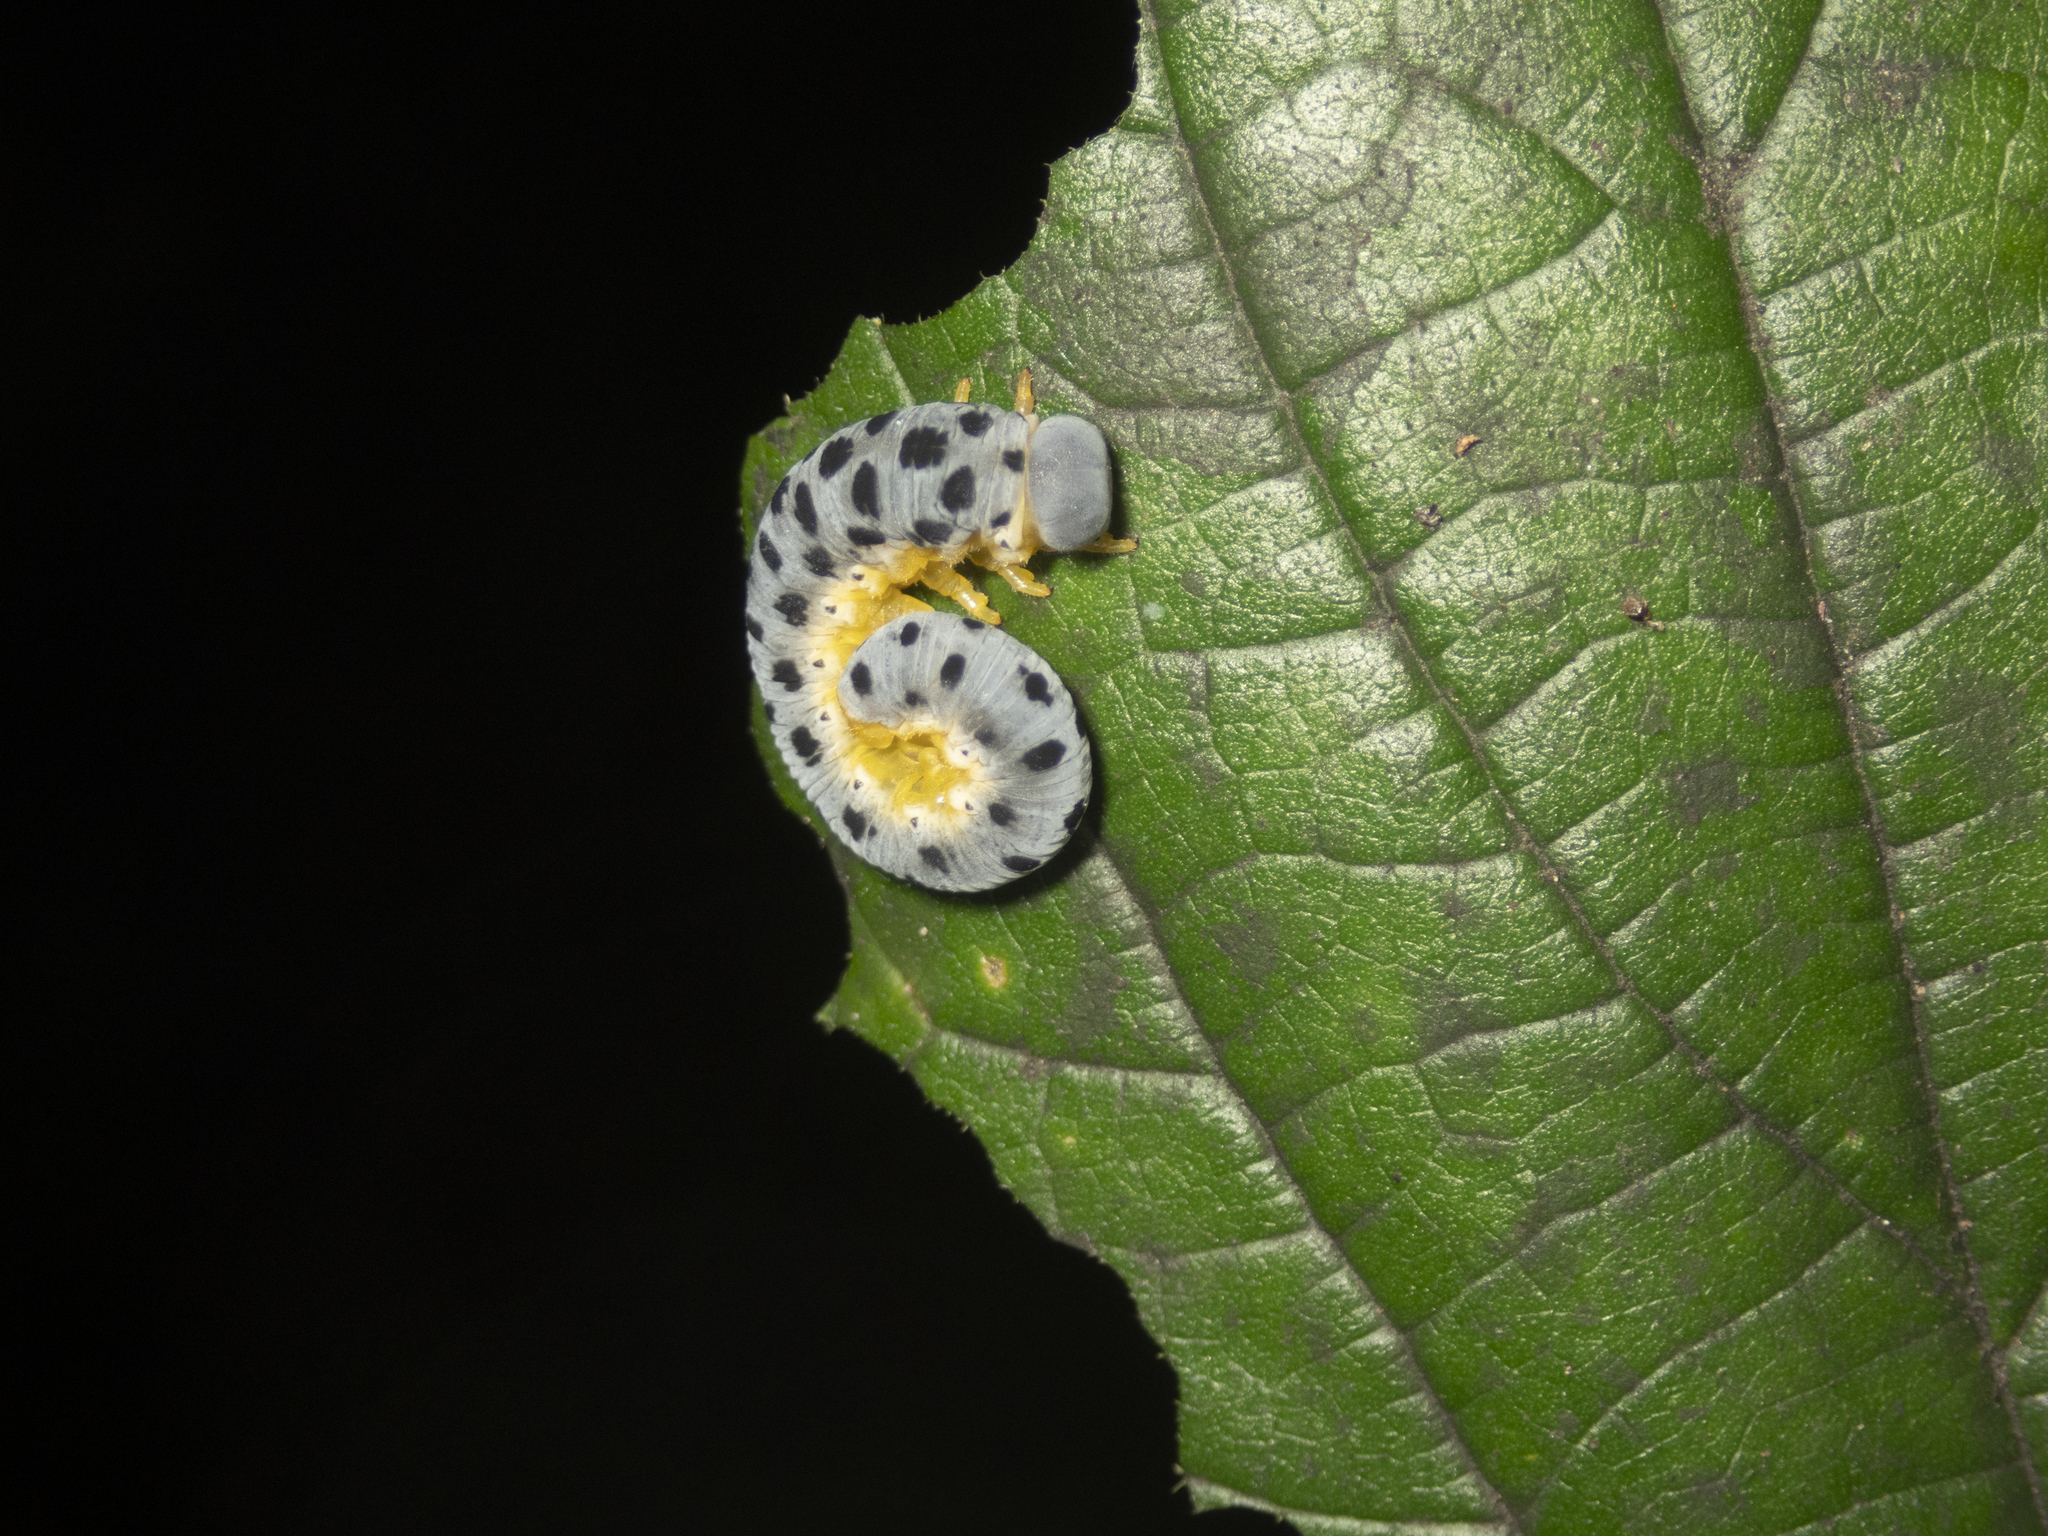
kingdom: Animalia
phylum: Arthropoda
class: Insecta
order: Hymenoptera
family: Cimbicidae
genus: Agenocimbex
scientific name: Agenocimbex
